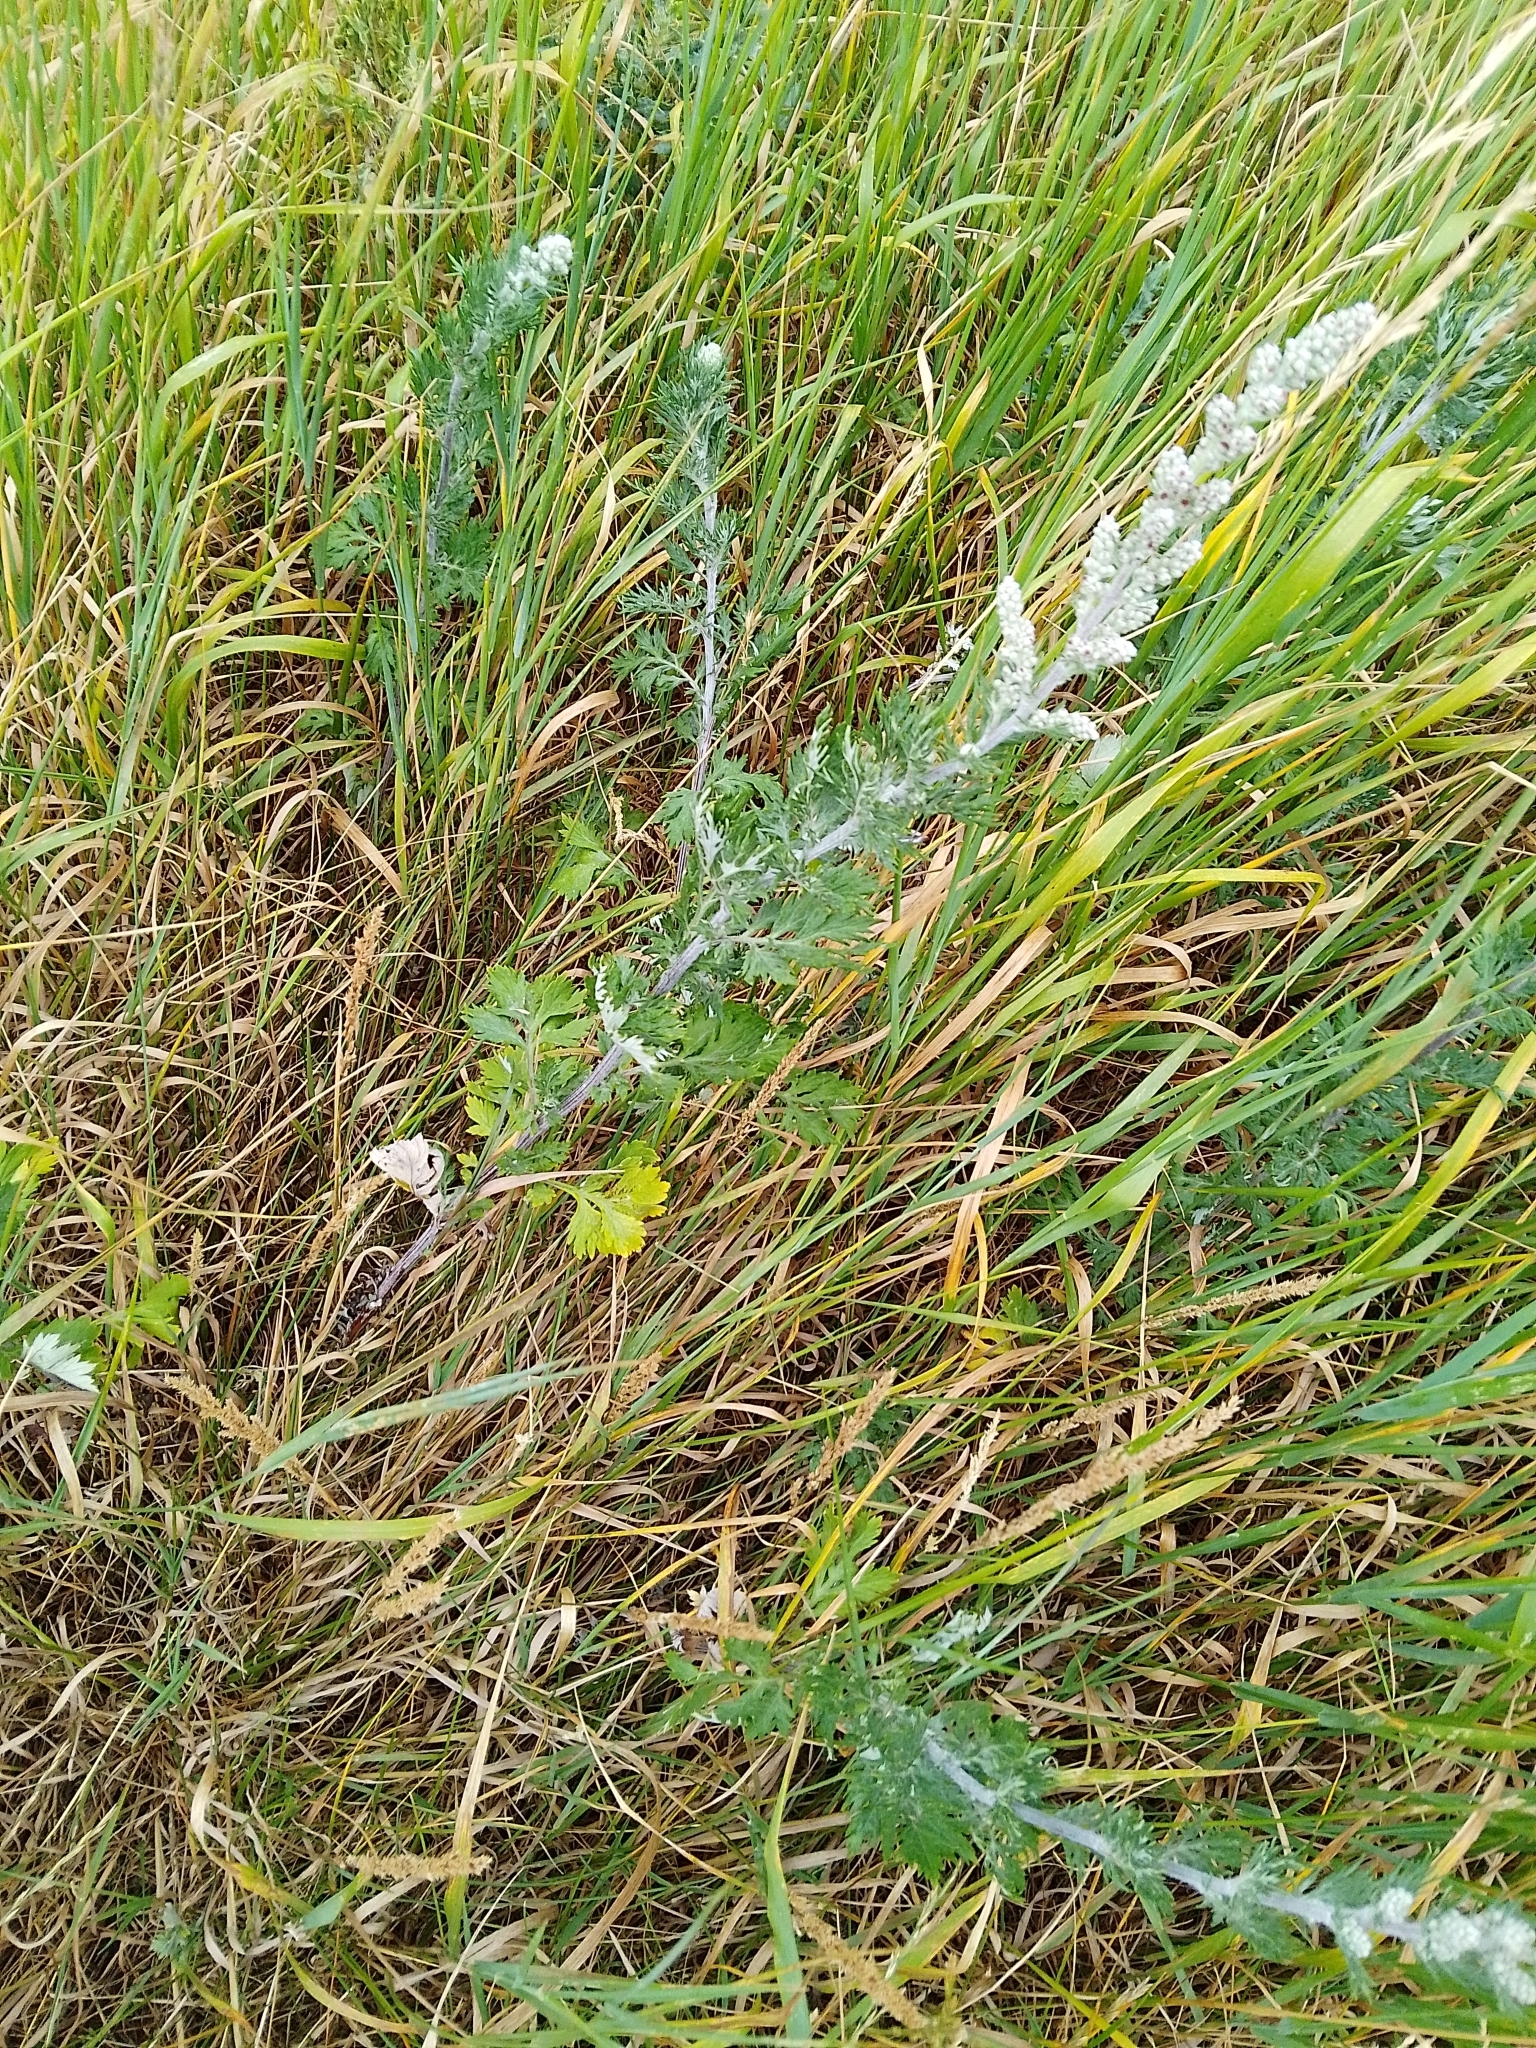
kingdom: Plantae
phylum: Tracheophyta
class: Magnoliopsida
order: Asterales
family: Asteraceae
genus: Artemisia
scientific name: Artemisia vulgaris
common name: Mugwort
